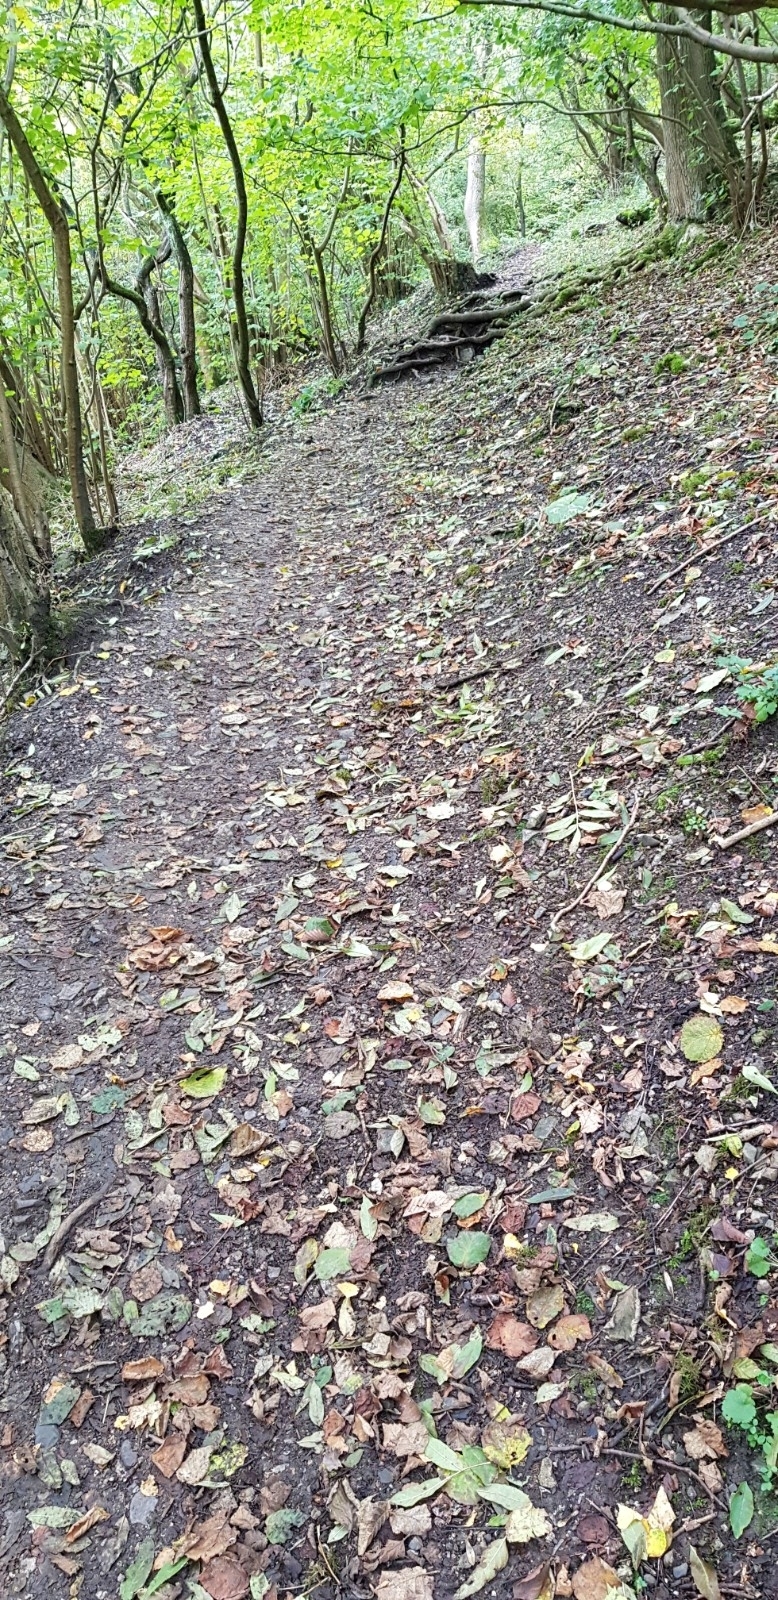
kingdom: Plantae
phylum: Bryophyta
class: Bryopsida
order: Hypnales
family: Thuidiaceae
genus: Thuidium
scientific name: Thuidium tamariscinum
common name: Common tamarisk-moss
